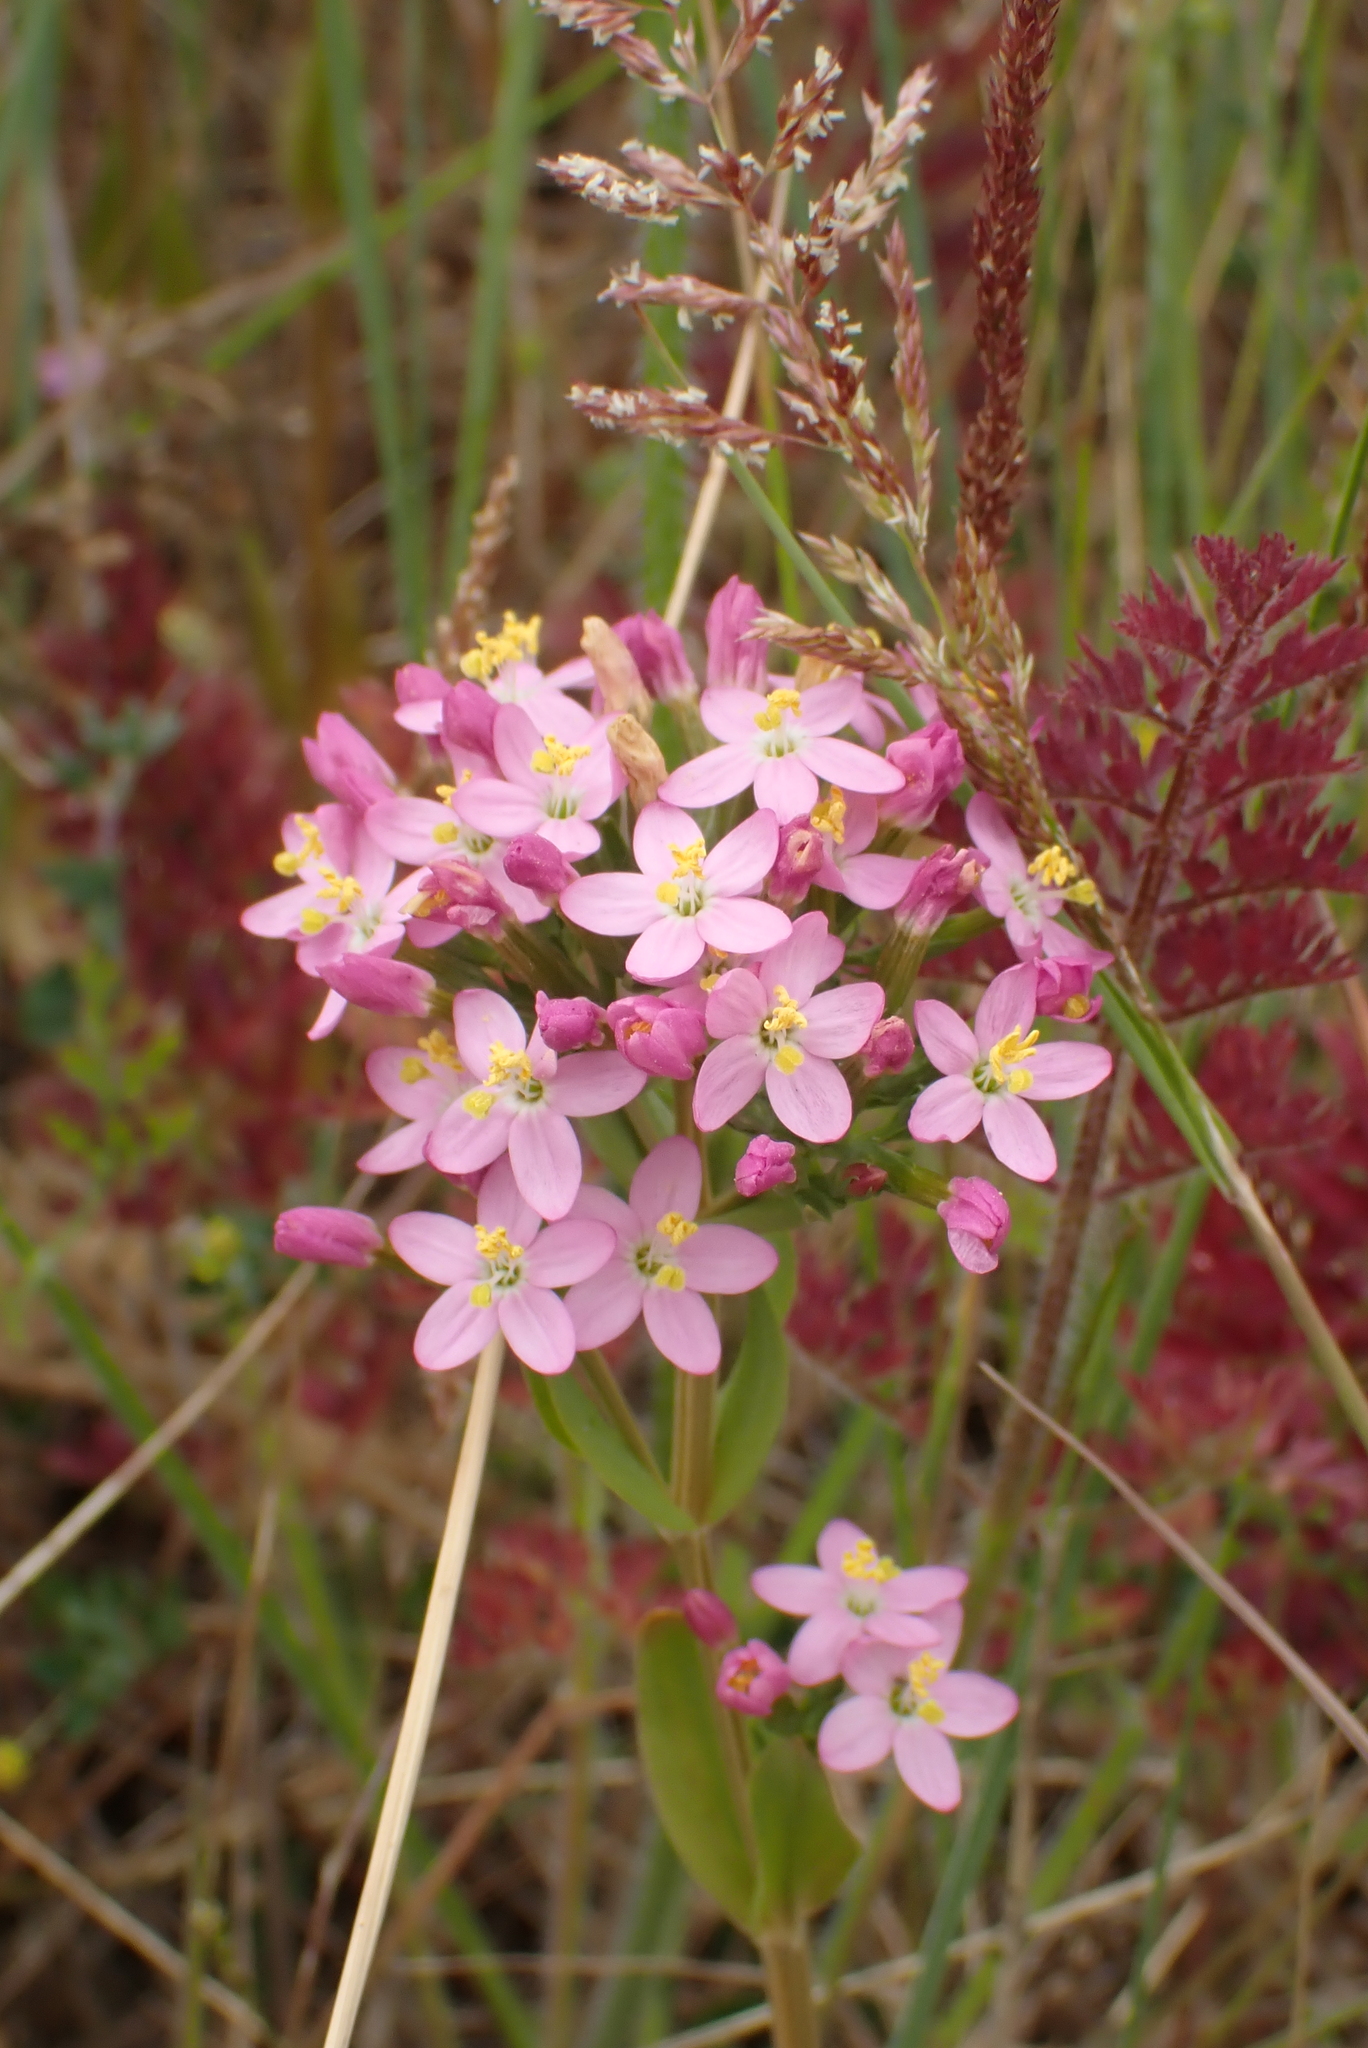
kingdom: Plantae
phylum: Tracheophyta
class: Magnoliopsida
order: Gentianales
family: Gentianaceae
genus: Centaurium
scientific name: Centaurium erythraea
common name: Common centaury
